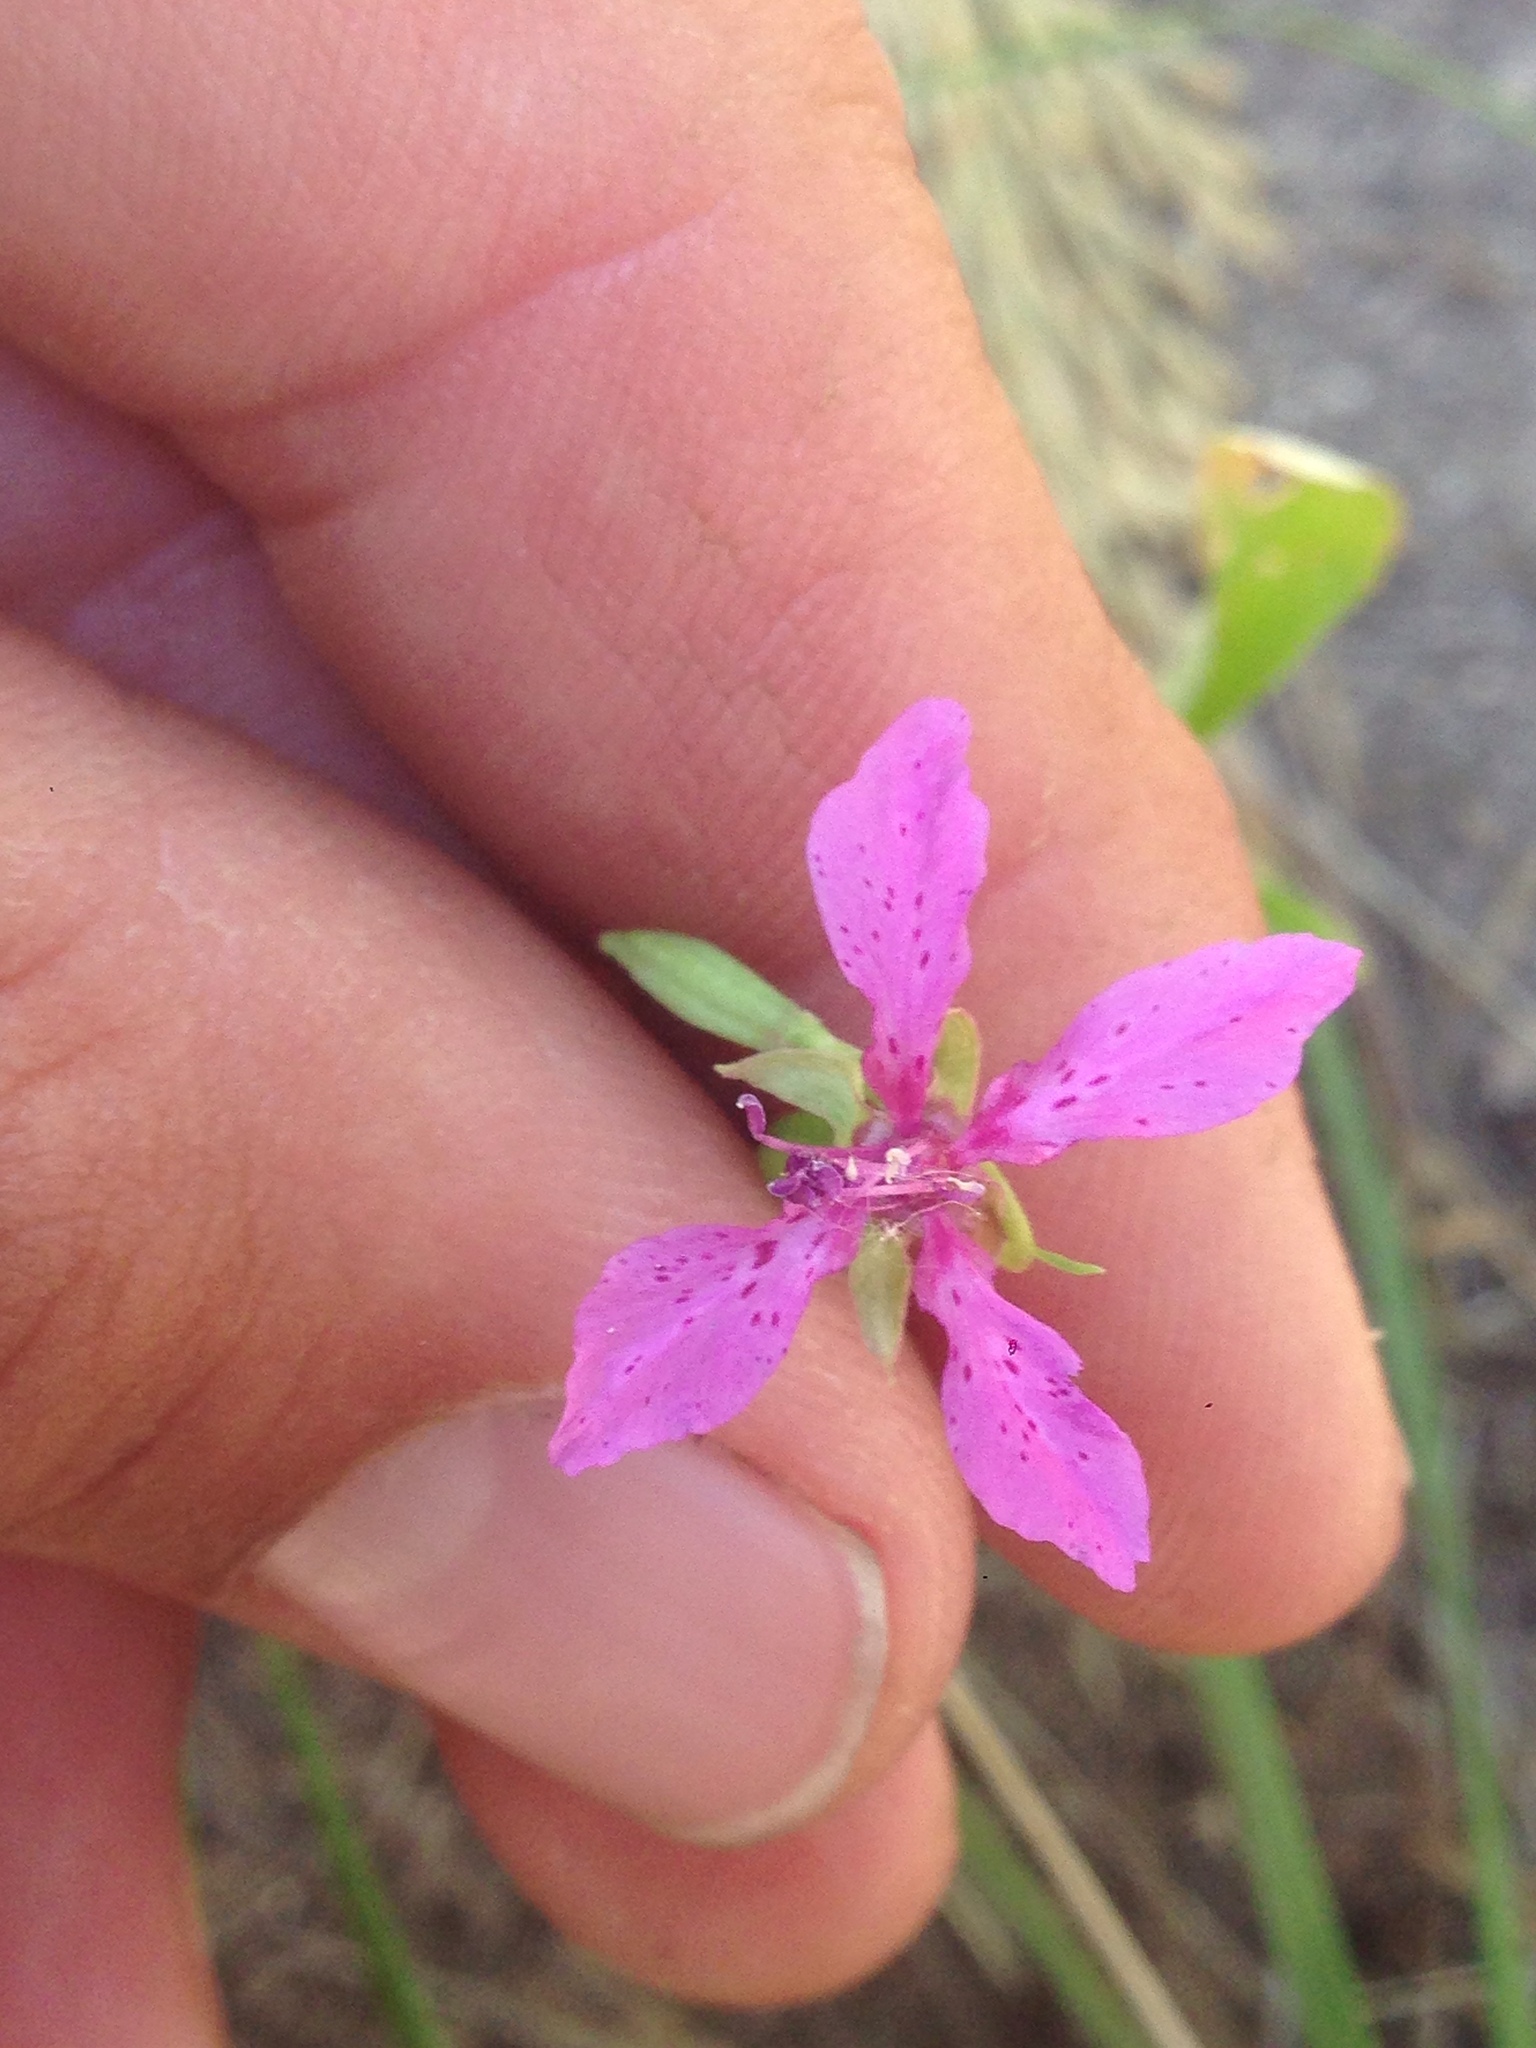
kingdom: Plantae
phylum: Tracheophyta
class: Magnoliopsida
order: Myrtales
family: Onagraceae
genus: Clarkia
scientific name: Clarkia rhomboidea
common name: Broadleaf clarkia
